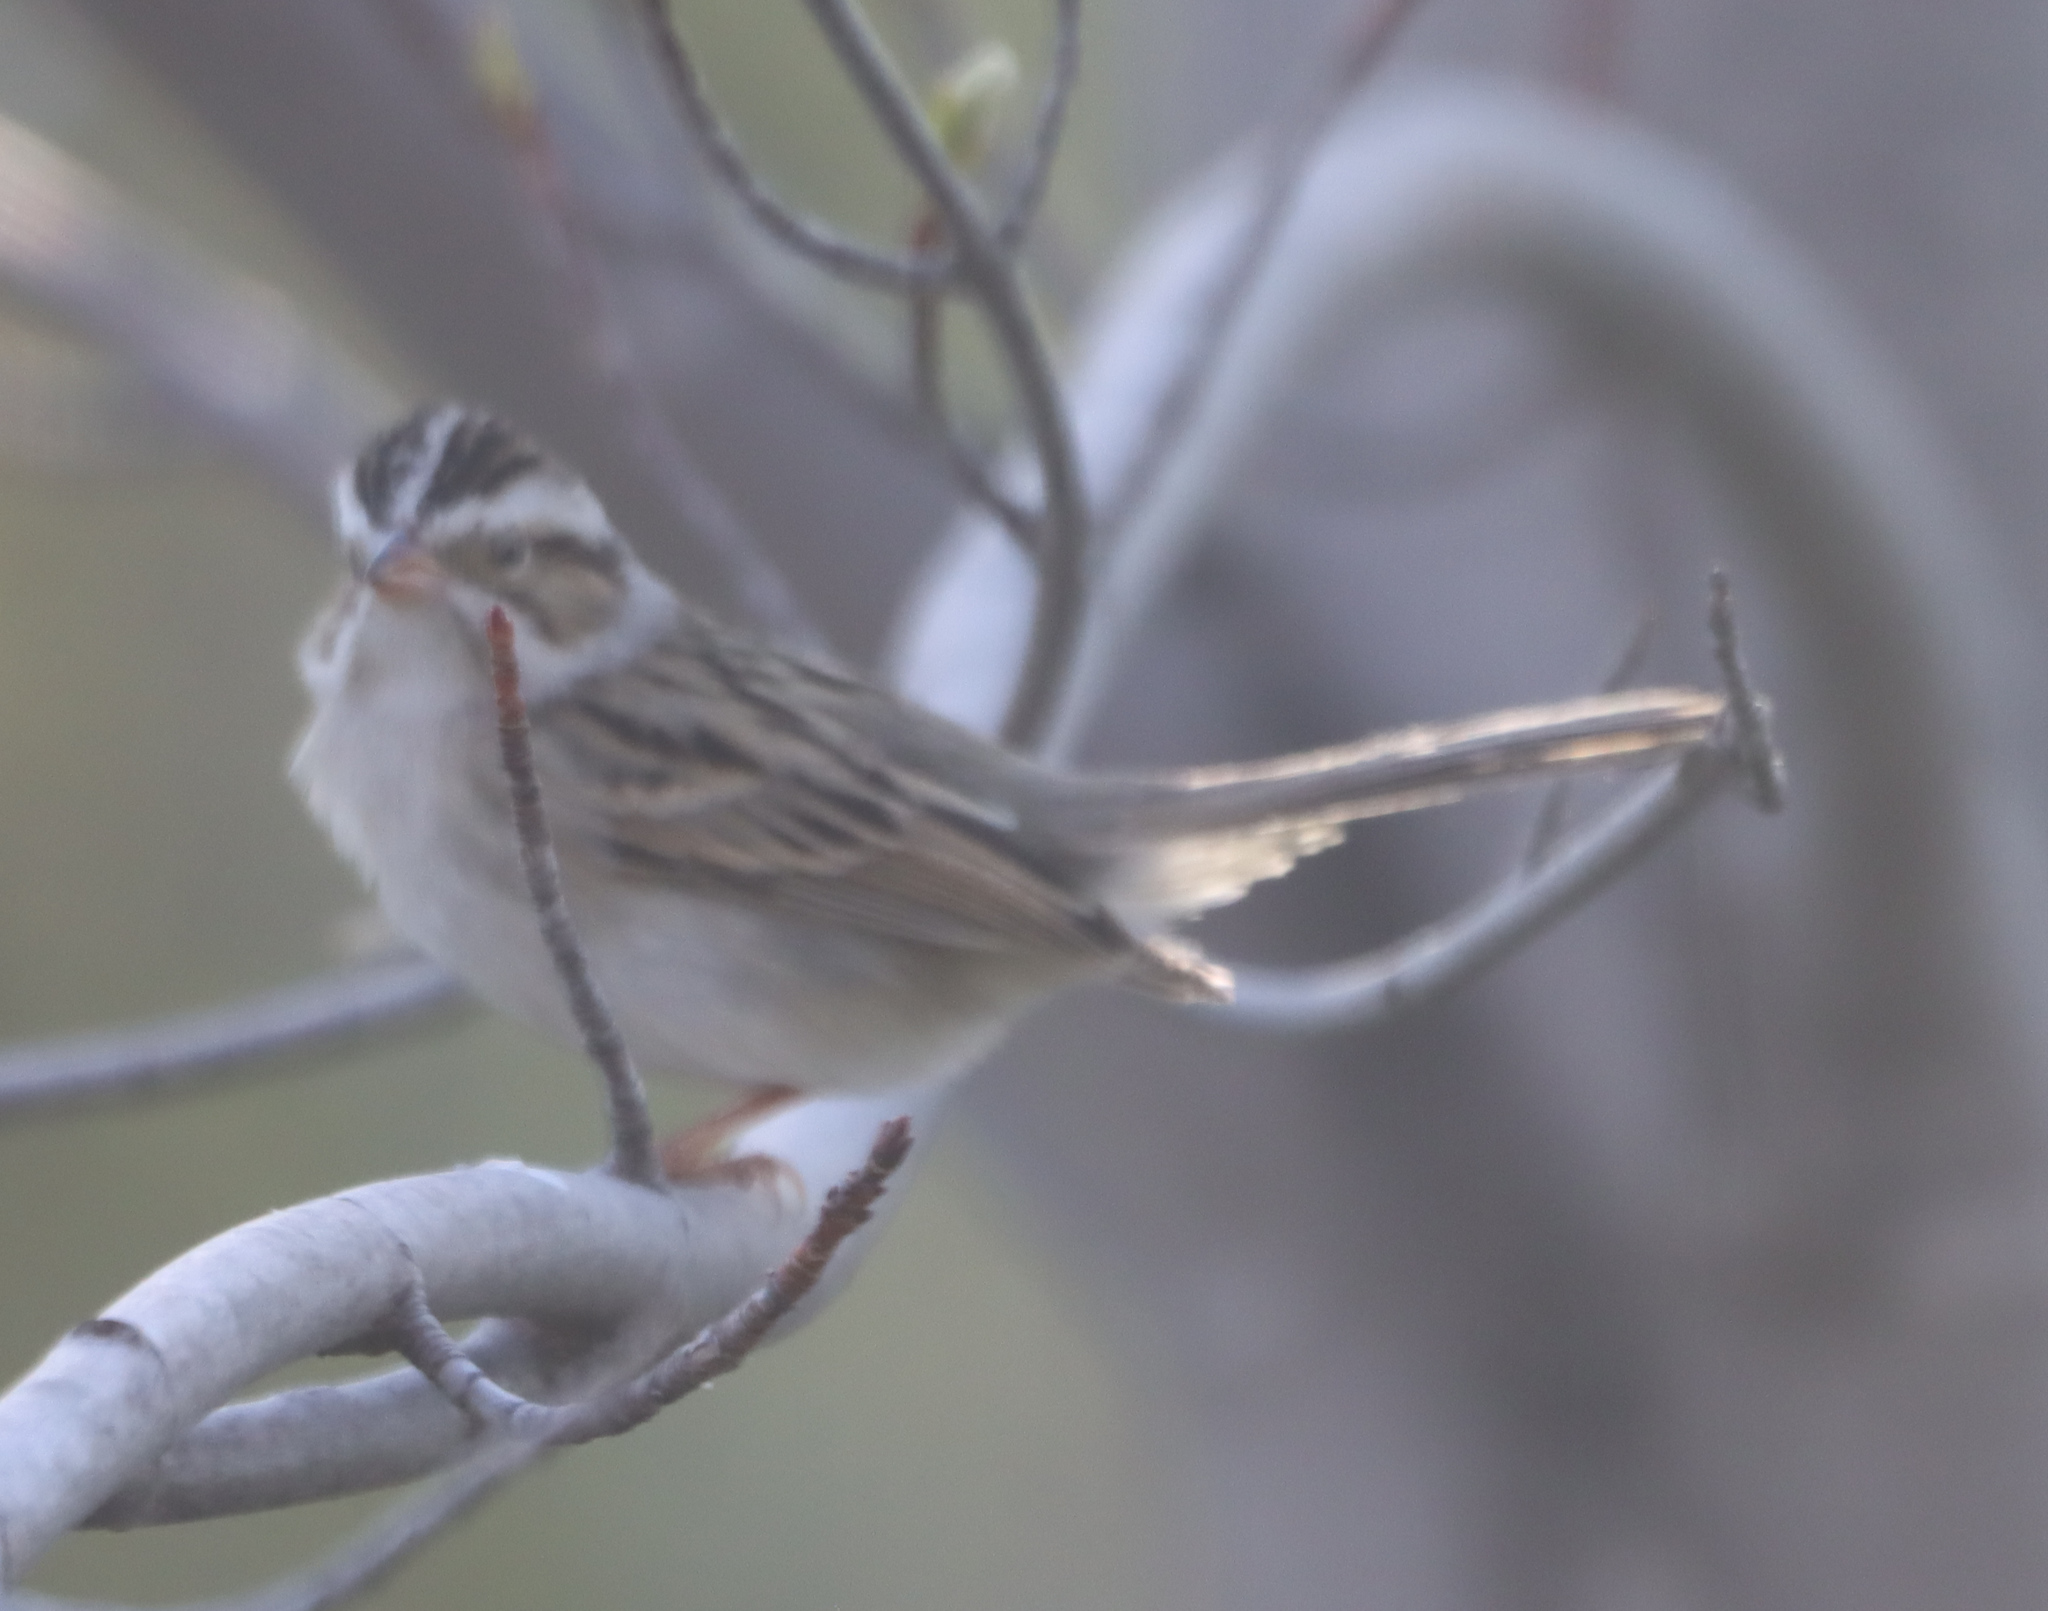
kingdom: Animalia
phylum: Chordata
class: Aves
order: Passeriformes
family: Passerellidae
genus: Spizella
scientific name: Spizella pallida
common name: Clay-colored sparrow
